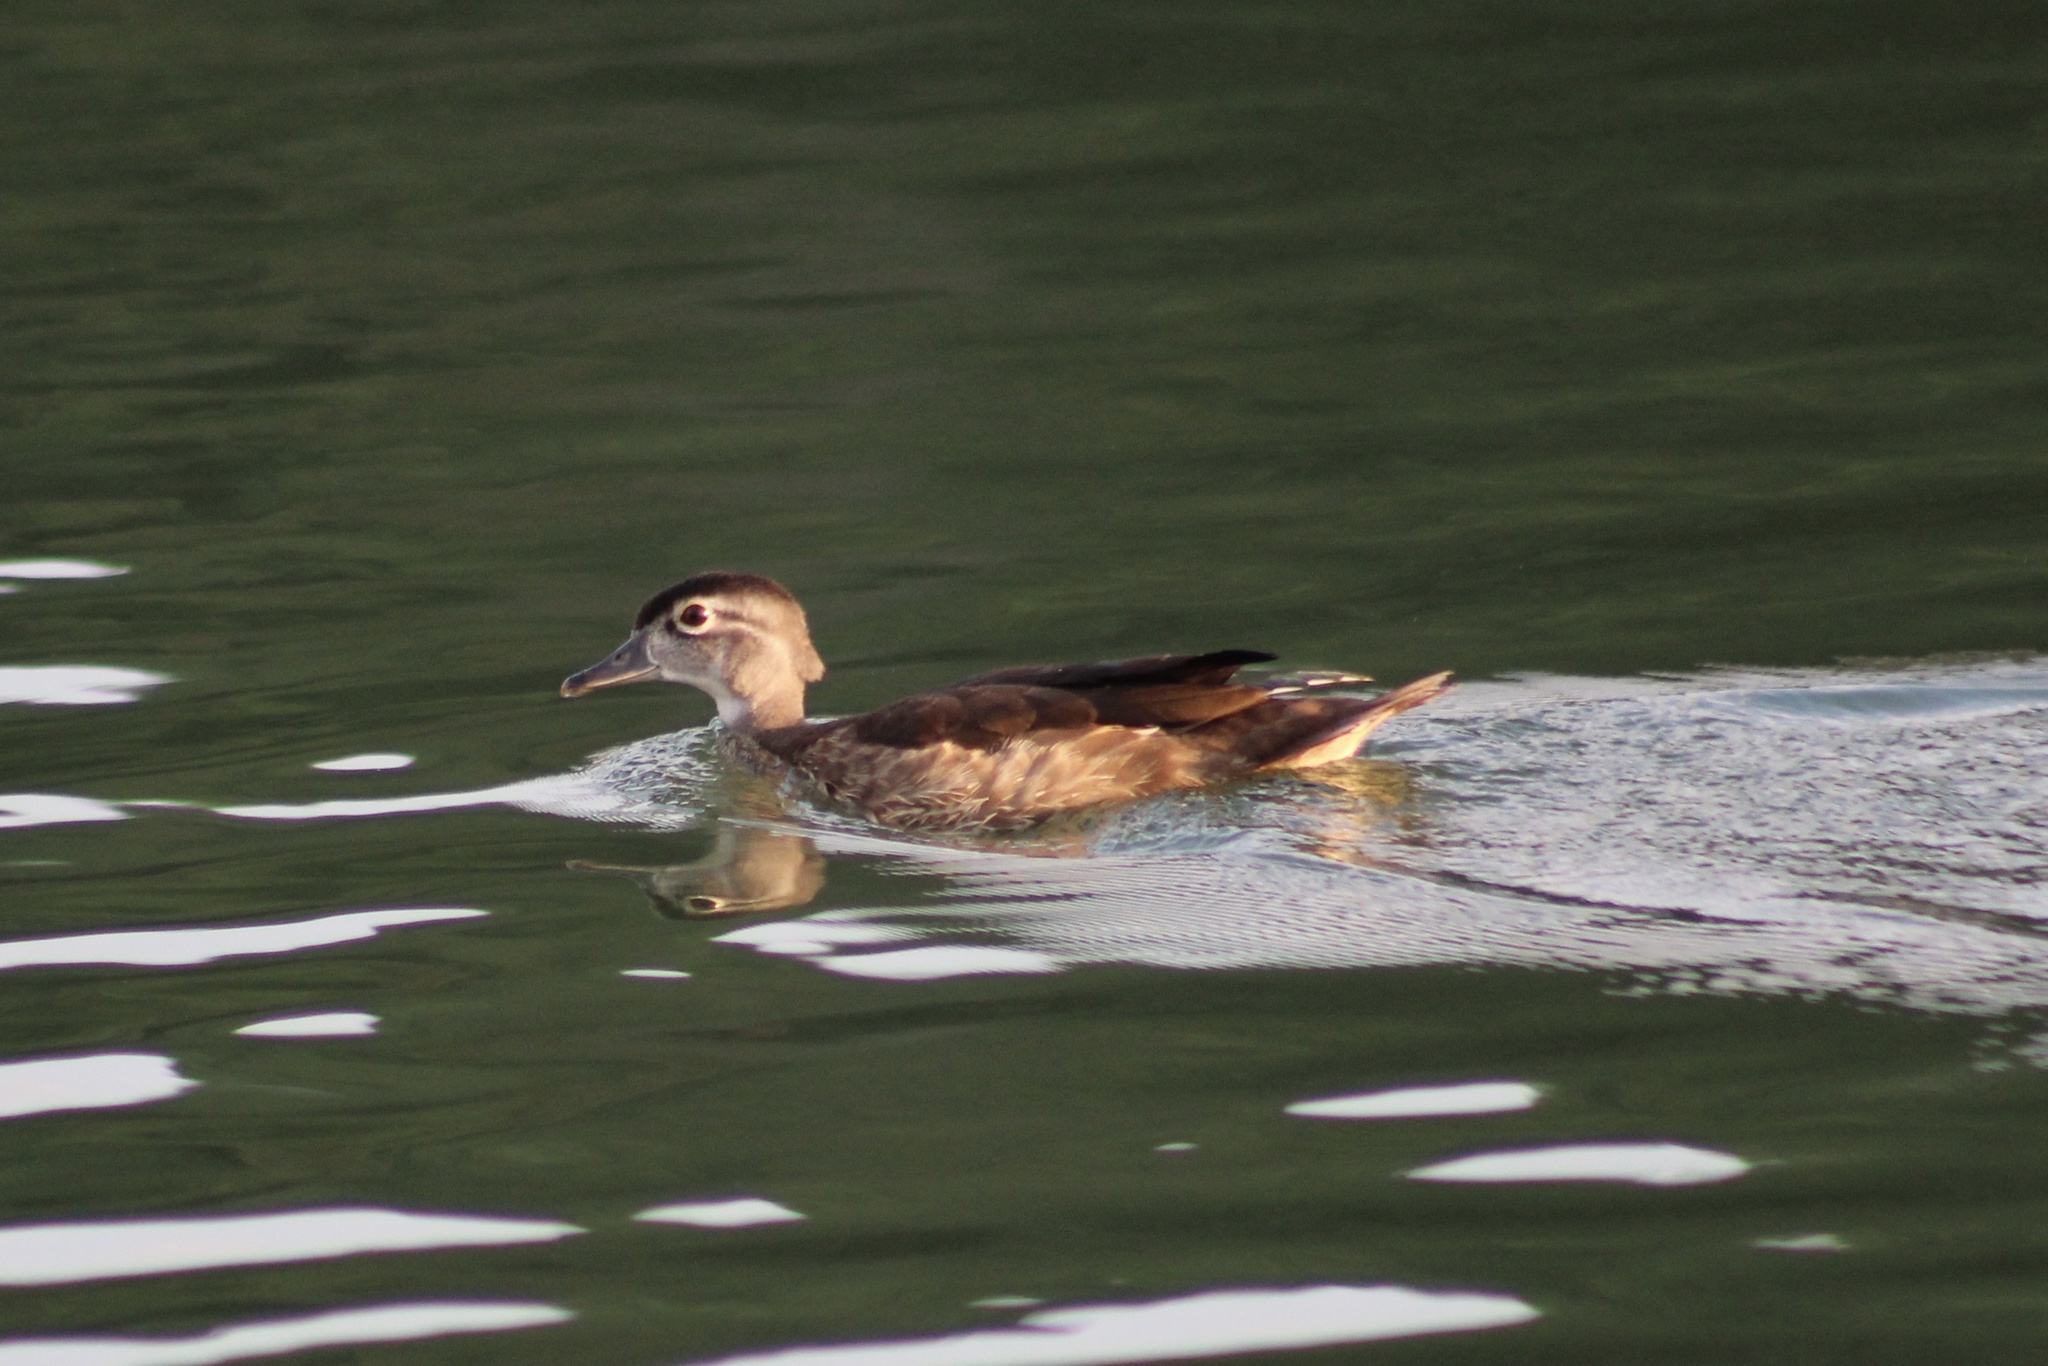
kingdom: Animalia
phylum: Chordata
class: Aves
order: Anseriformes
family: Anatidae
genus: Aix
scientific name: Aix sponsa
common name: Wood duck
